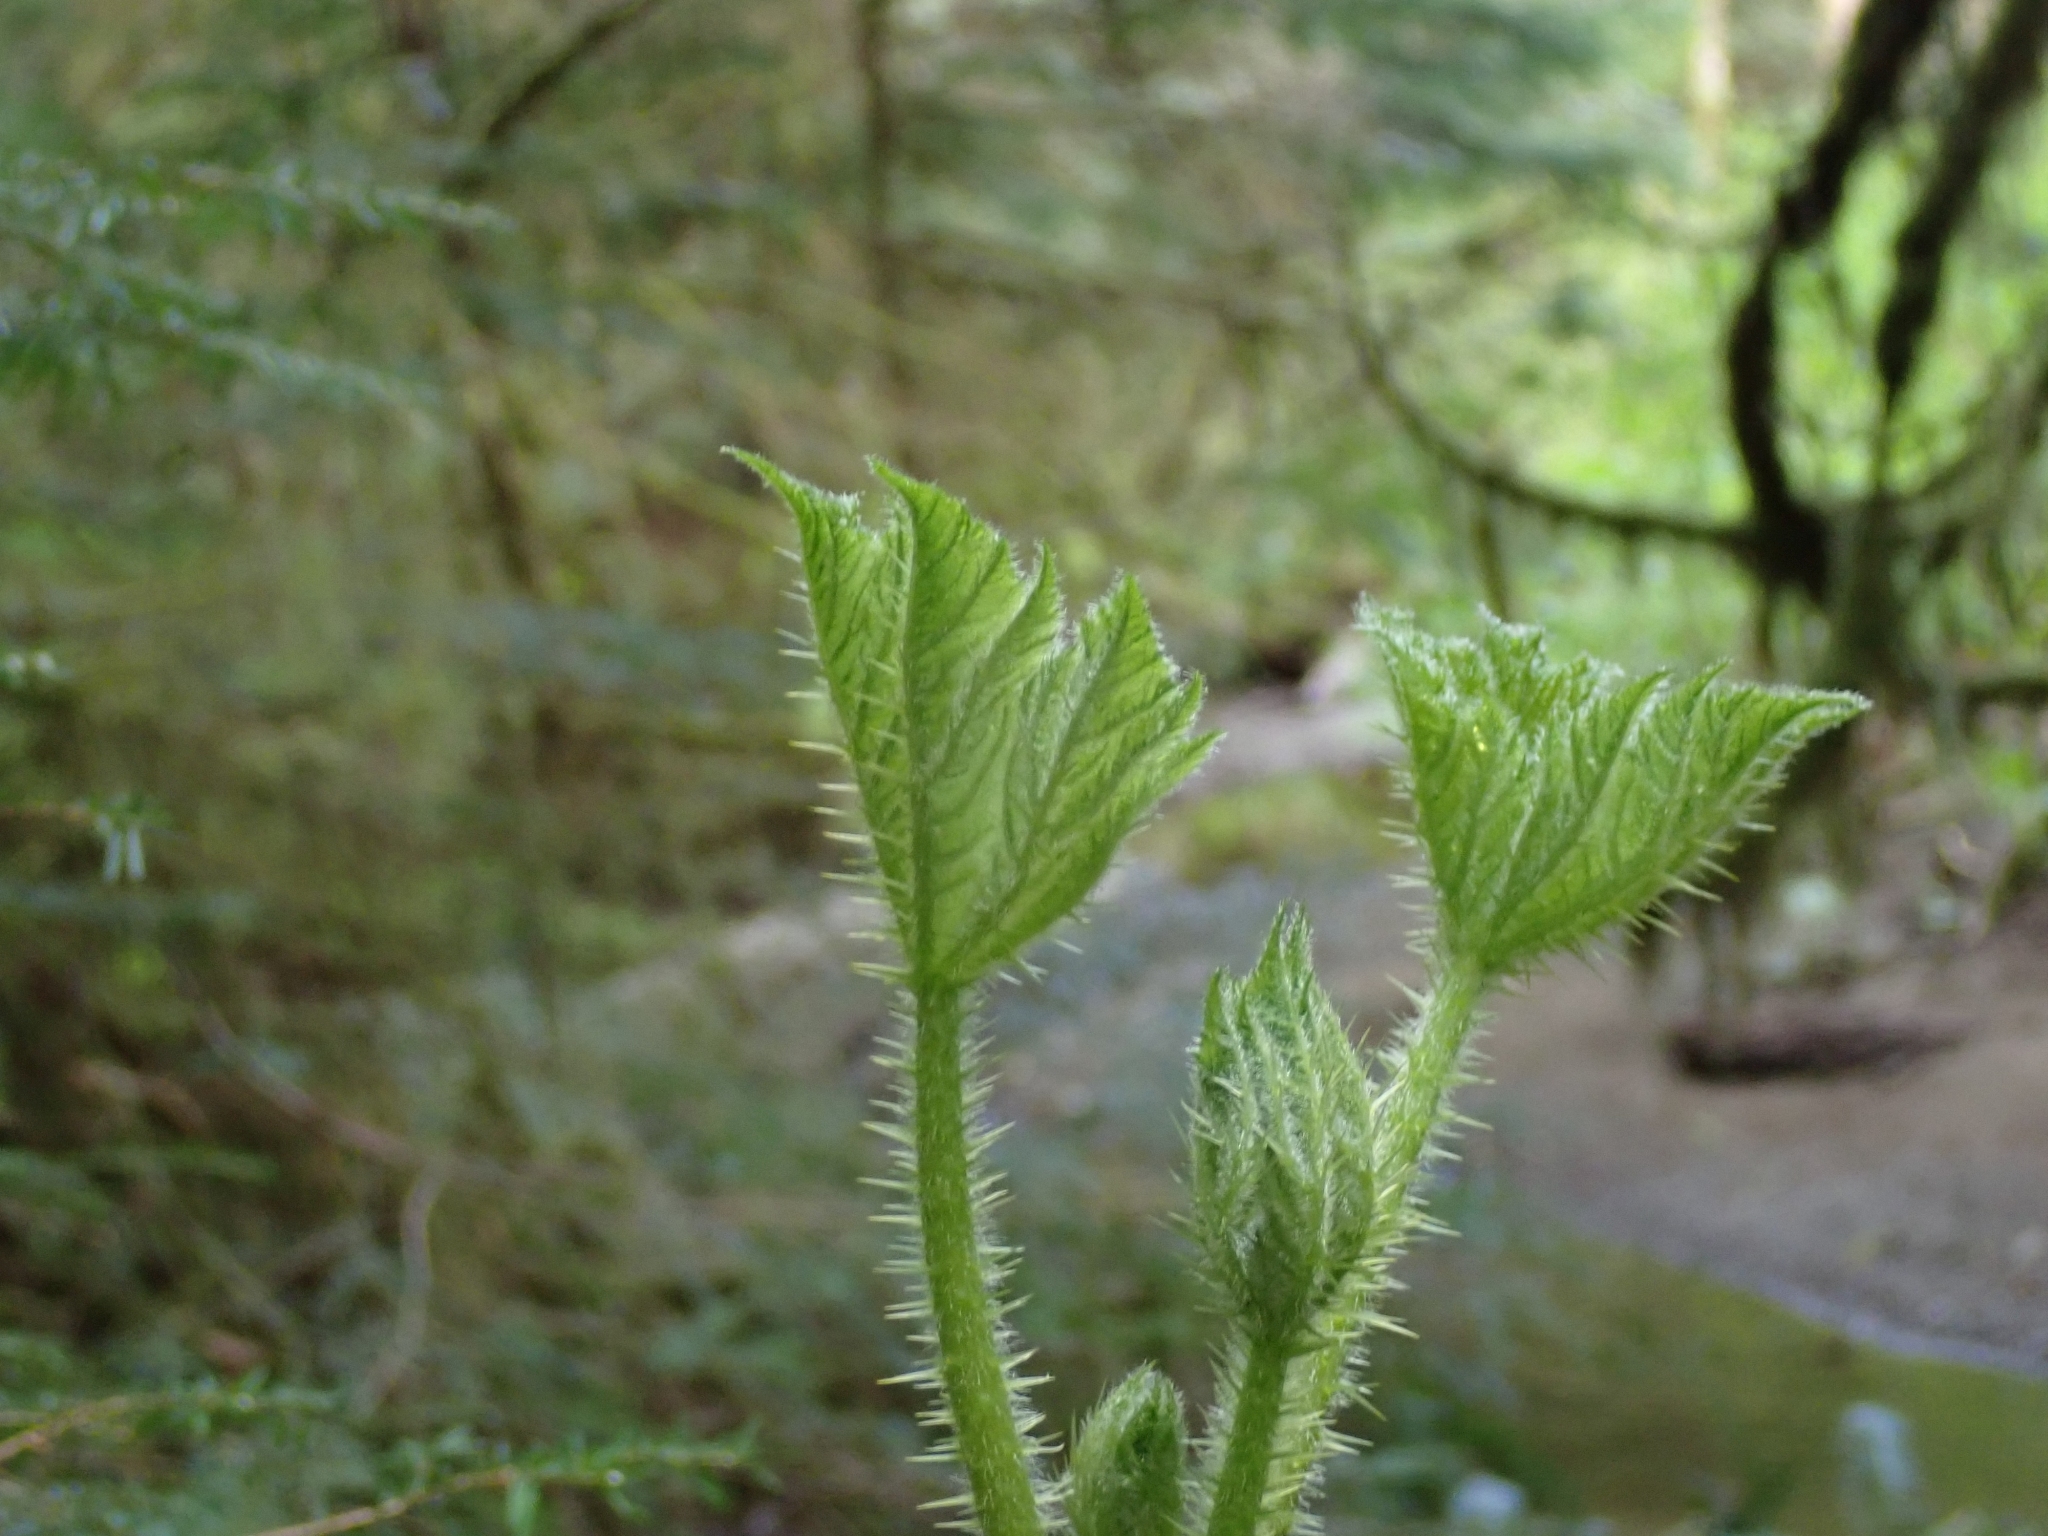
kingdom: Plantae
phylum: Tracheophyta
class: Magnoliopsida
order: Apiales
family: Araliaceae
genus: Oplopanax
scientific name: Oplopanax horridus
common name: Devil's walking-stick
